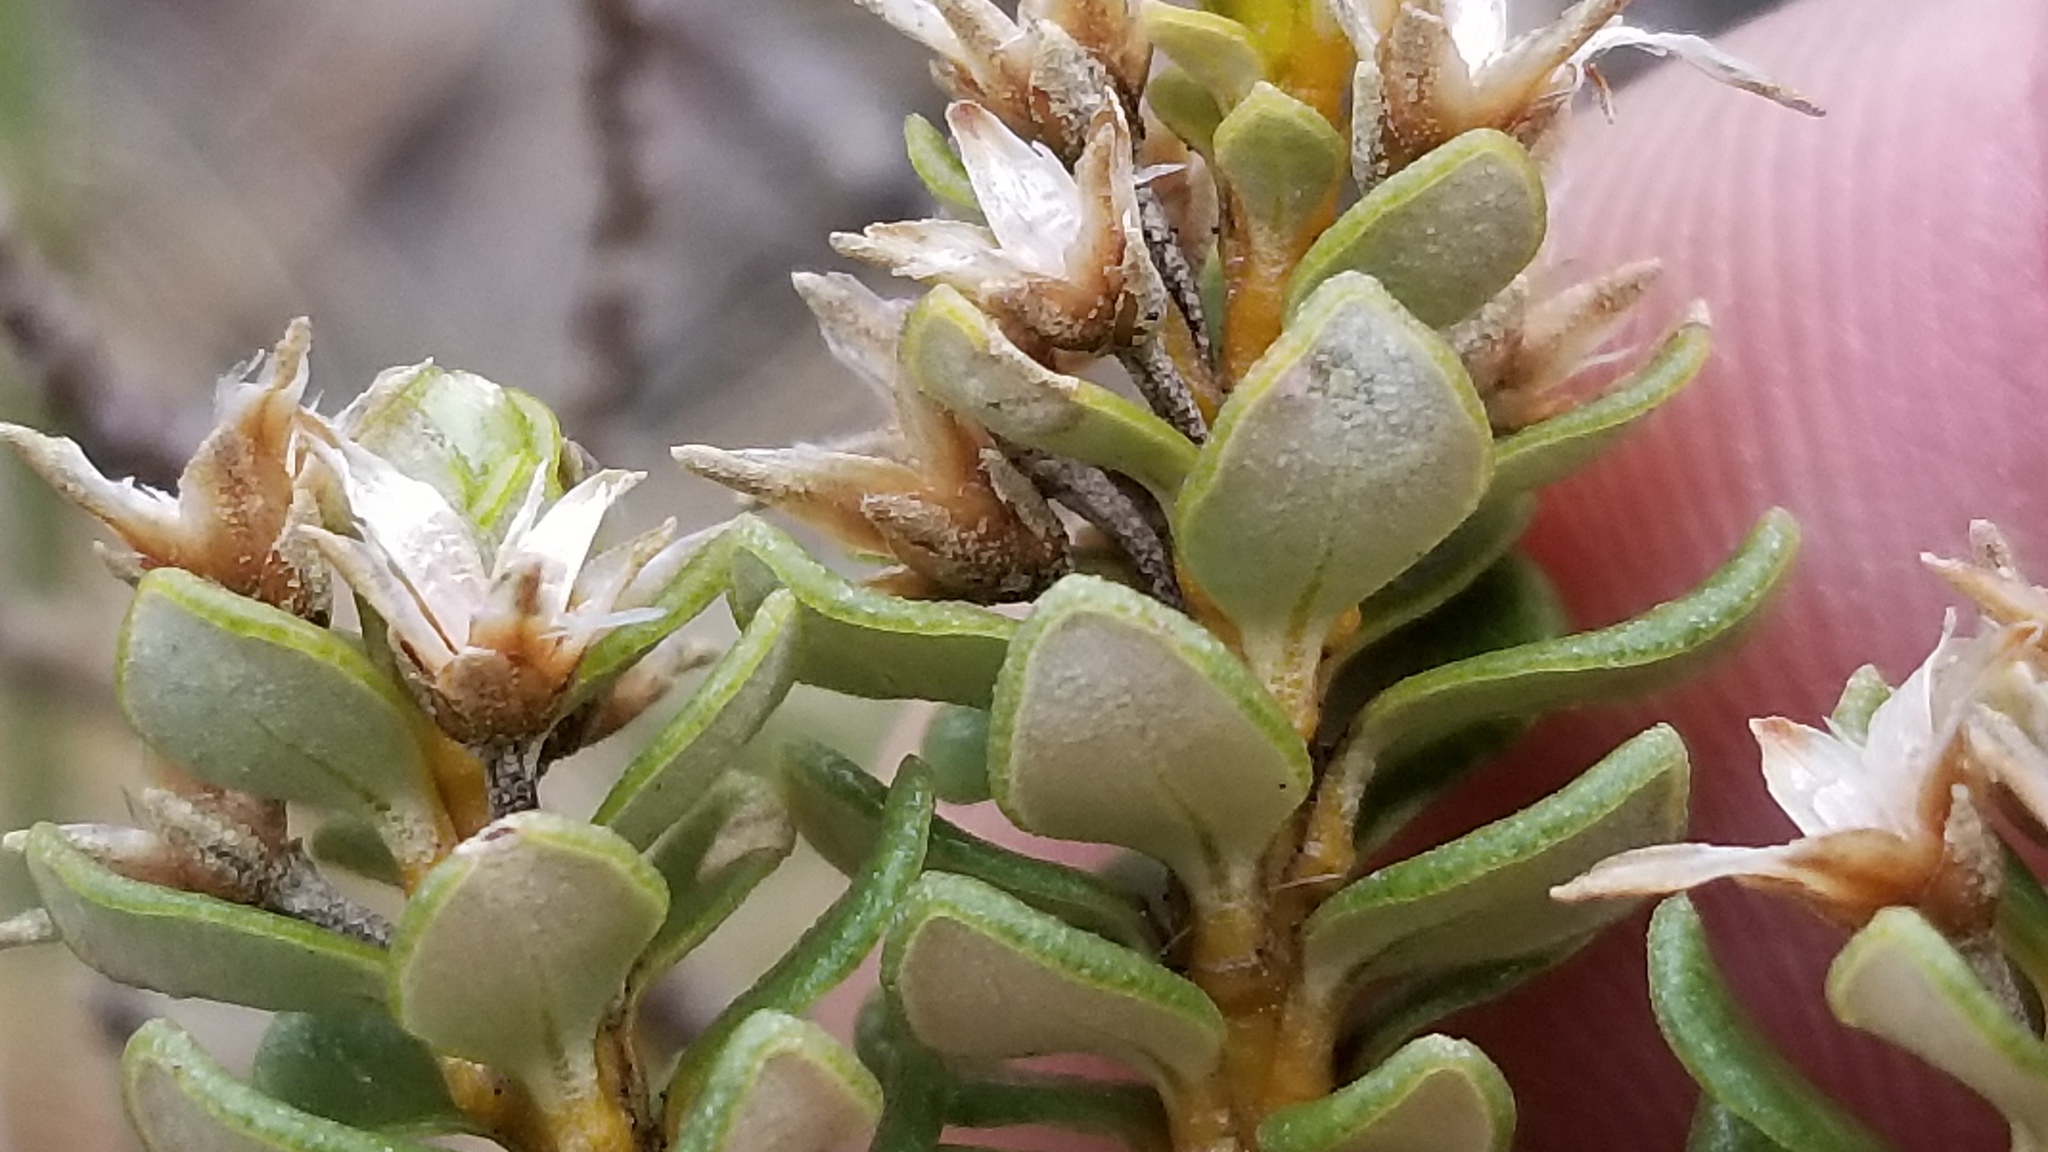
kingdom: Plantae
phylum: Tracheophyta
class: Magnoliopsida
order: Asterales
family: Asteraceae
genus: Olearia
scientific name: Olearia nummularifolia
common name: Sticky daisybush
